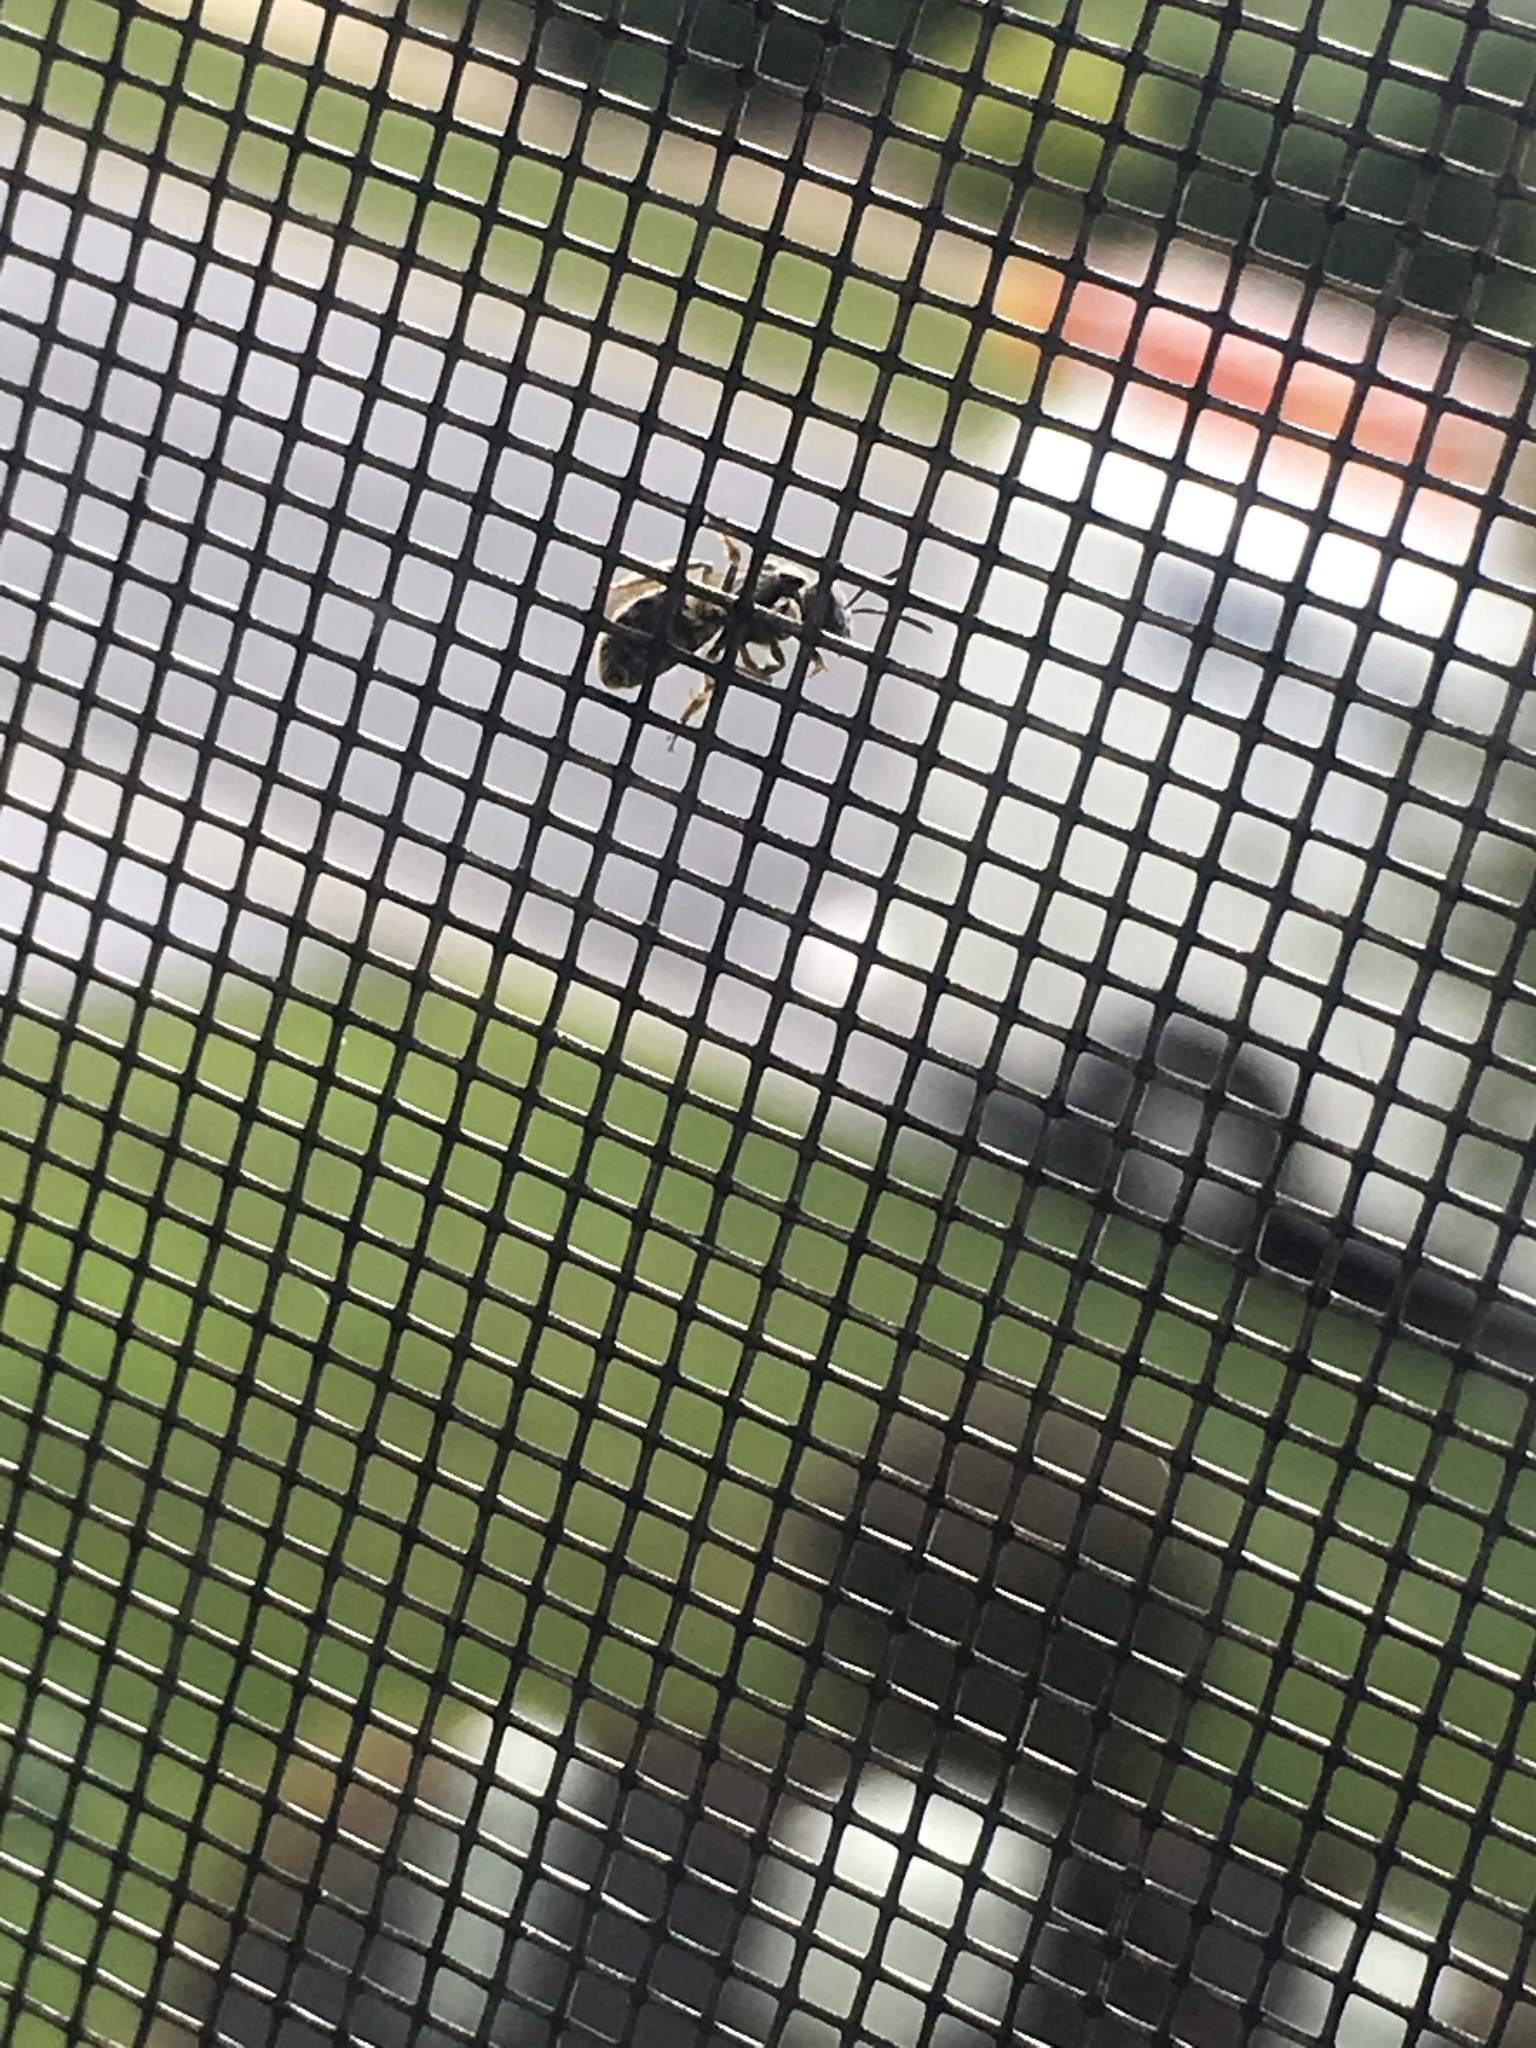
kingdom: Animalia
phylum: Arthropoda
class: Insecta
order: Hymenoptera
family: Halictidae
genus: Lasioglossum
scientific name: Lasioglossum
